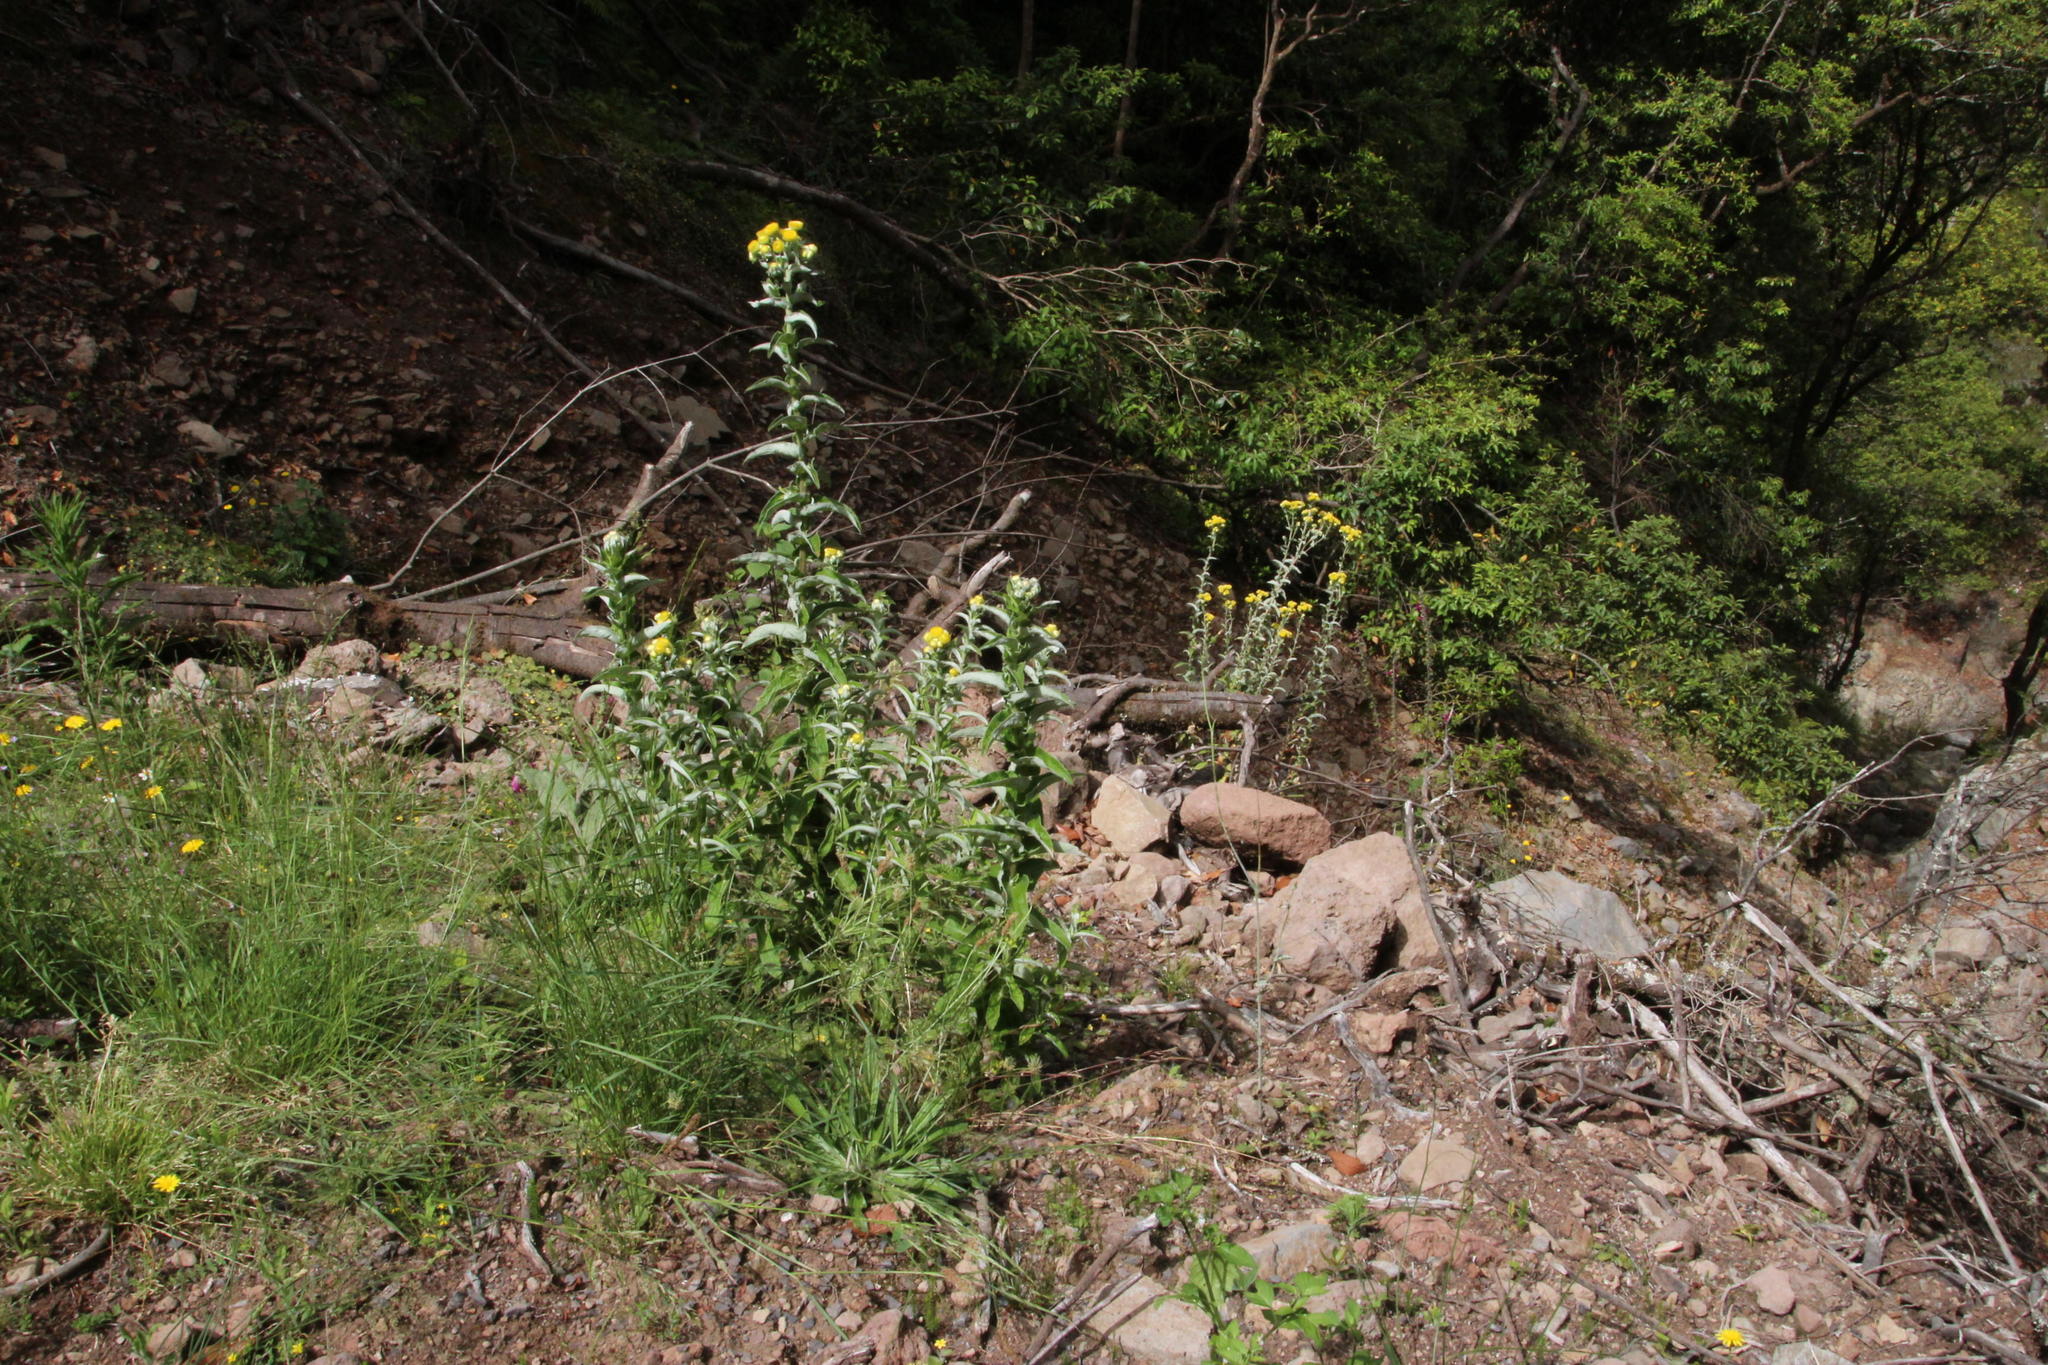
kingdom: Plantae
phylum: Tracheophyta
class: Magnoliopsida
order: Asterales
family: Asteraceae
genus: Helichrysum
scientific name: Helichrysum foetidum
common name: Stinking everlasting
